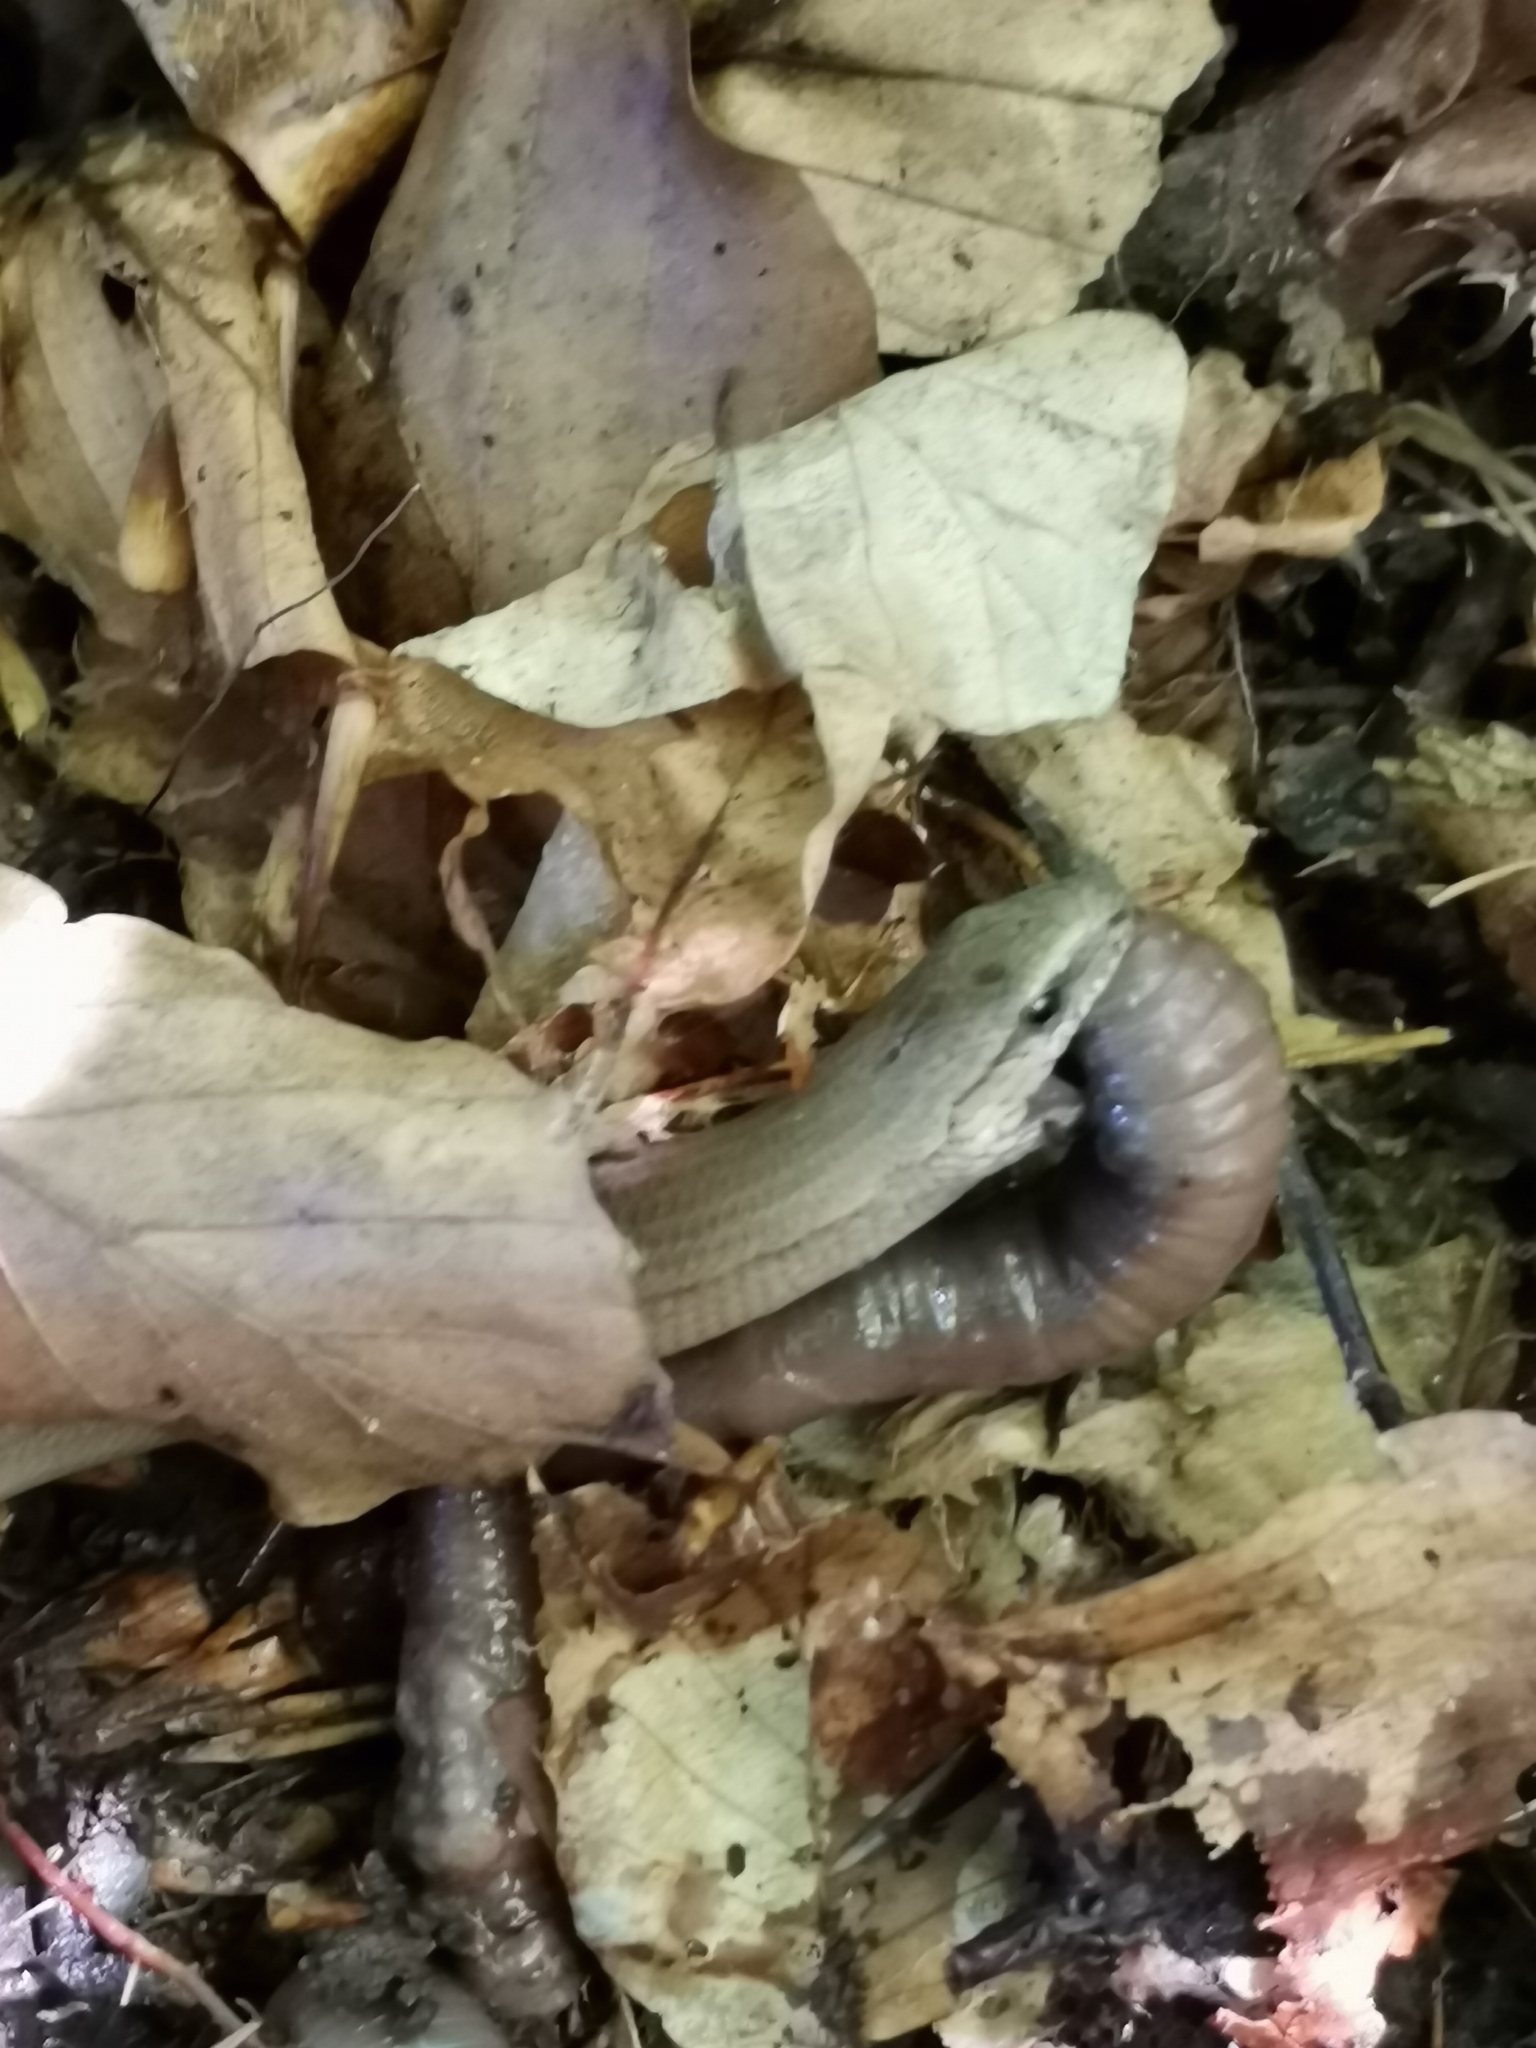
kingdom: Animalia
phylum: Chordata
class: Squamata
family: Anguidae
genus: Anguis
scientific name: Anguis fragilis
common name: Slow worm
